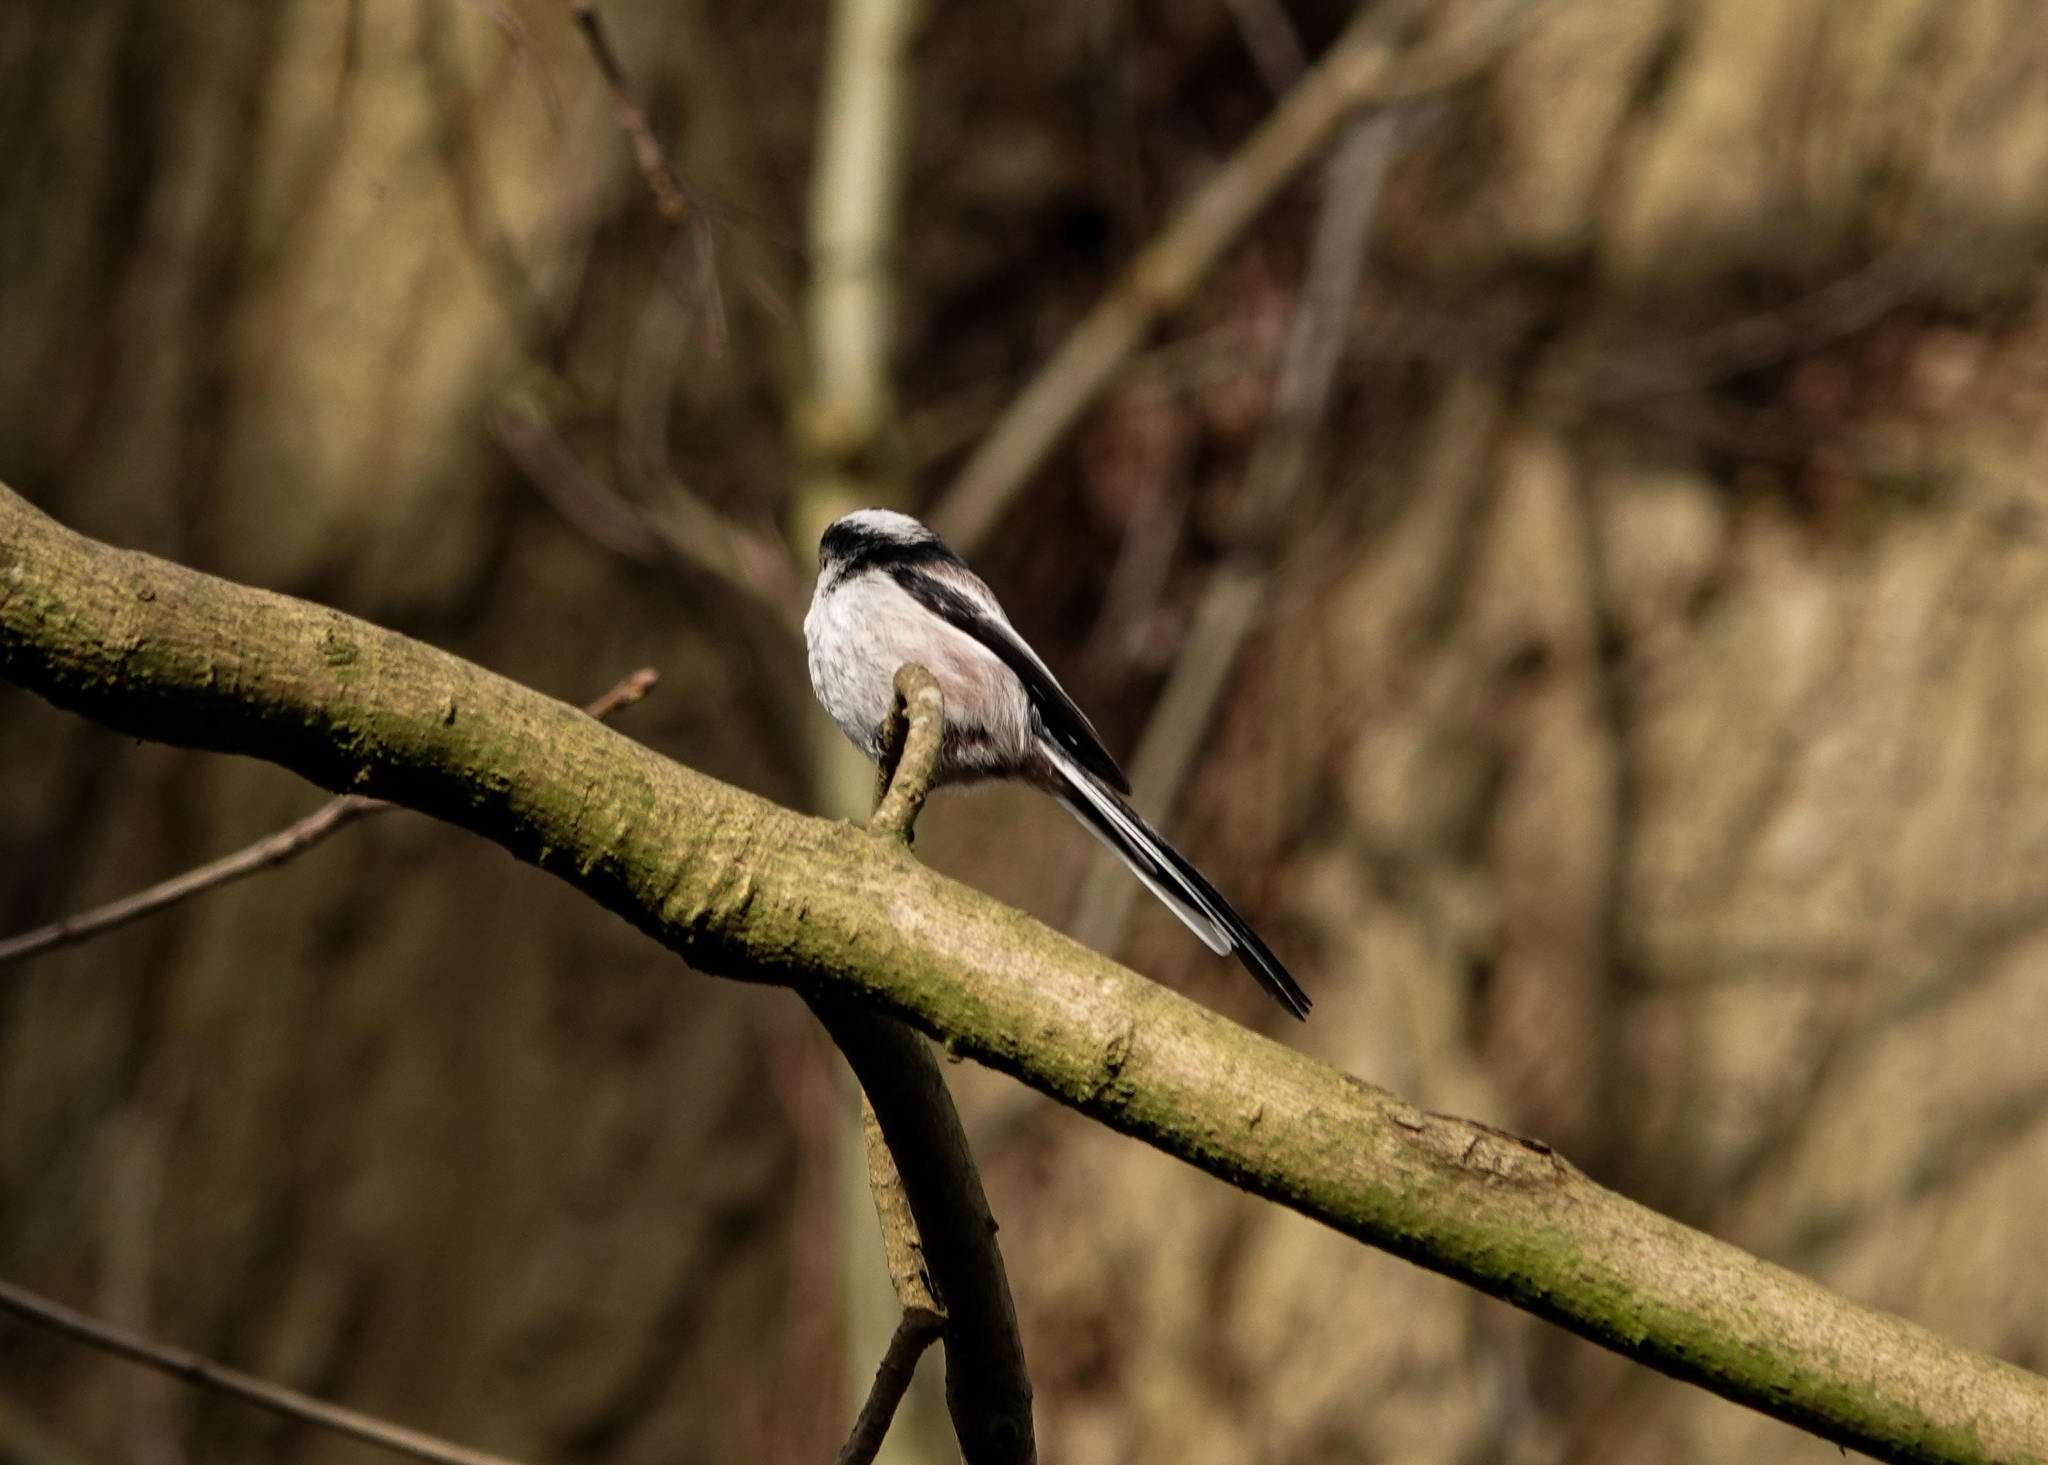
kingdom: Animalia
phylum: Chordata
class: Aves
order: Passeriformes
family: Aegithalidae
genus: Aegithalos
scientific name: Aegithalos caudatus
